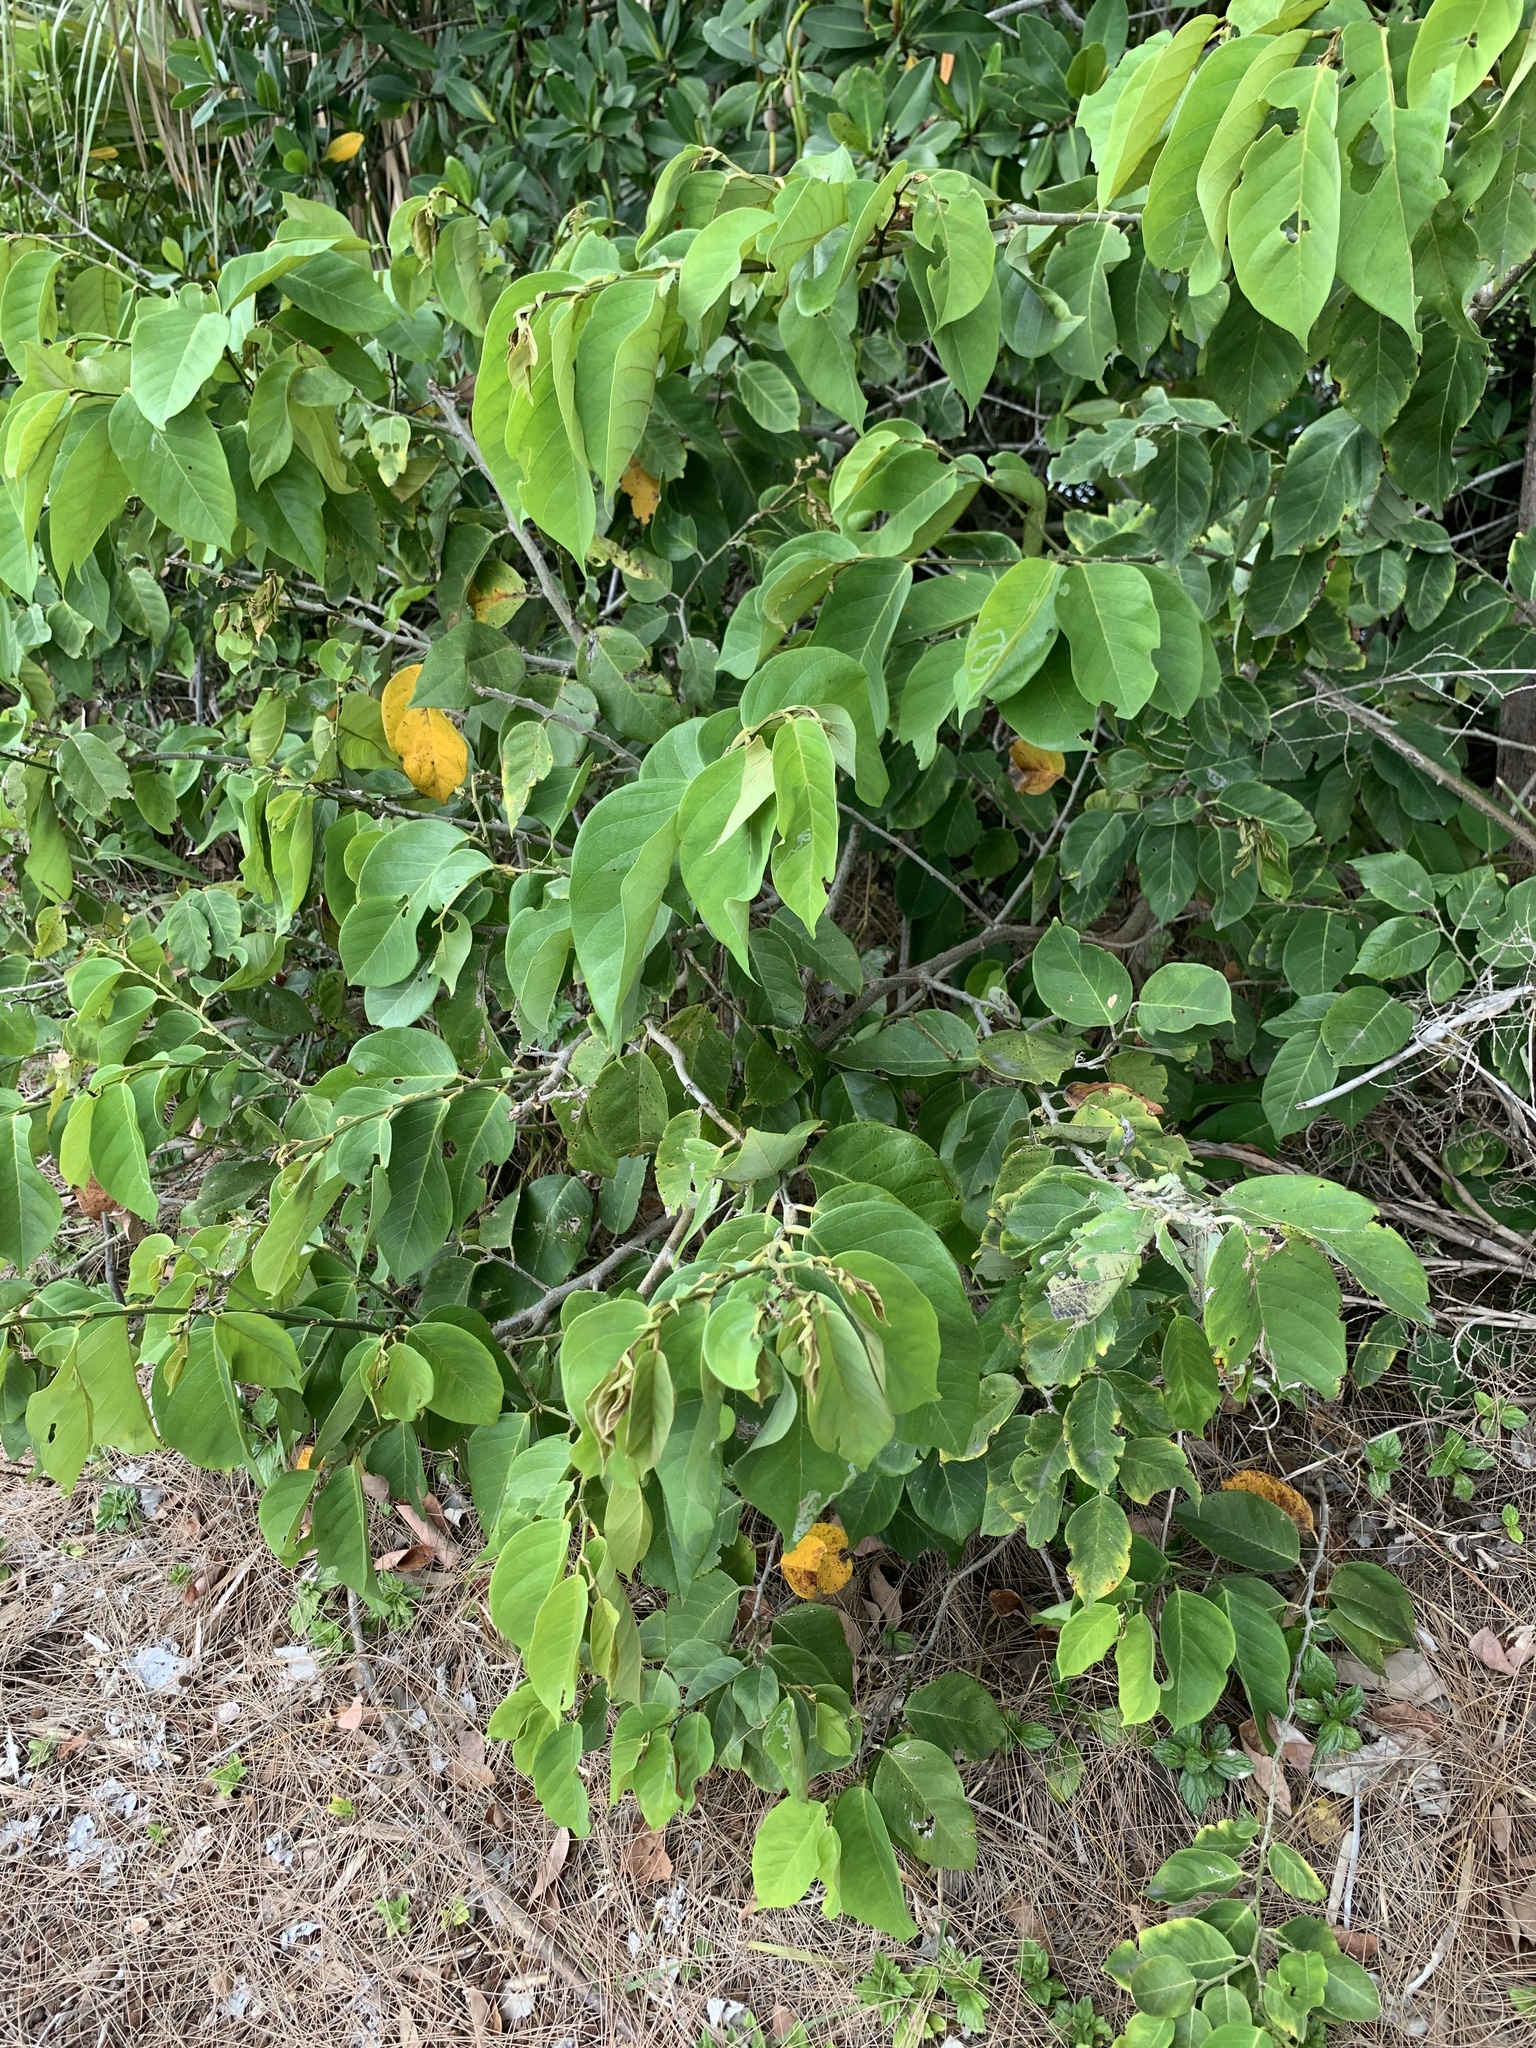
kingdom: Plantae
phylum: Tracheophyta
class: Magnoliopsida
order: Fabales
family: Fabaceae
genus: Dalbergia
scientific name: Dalbergia ecastaphyllum
